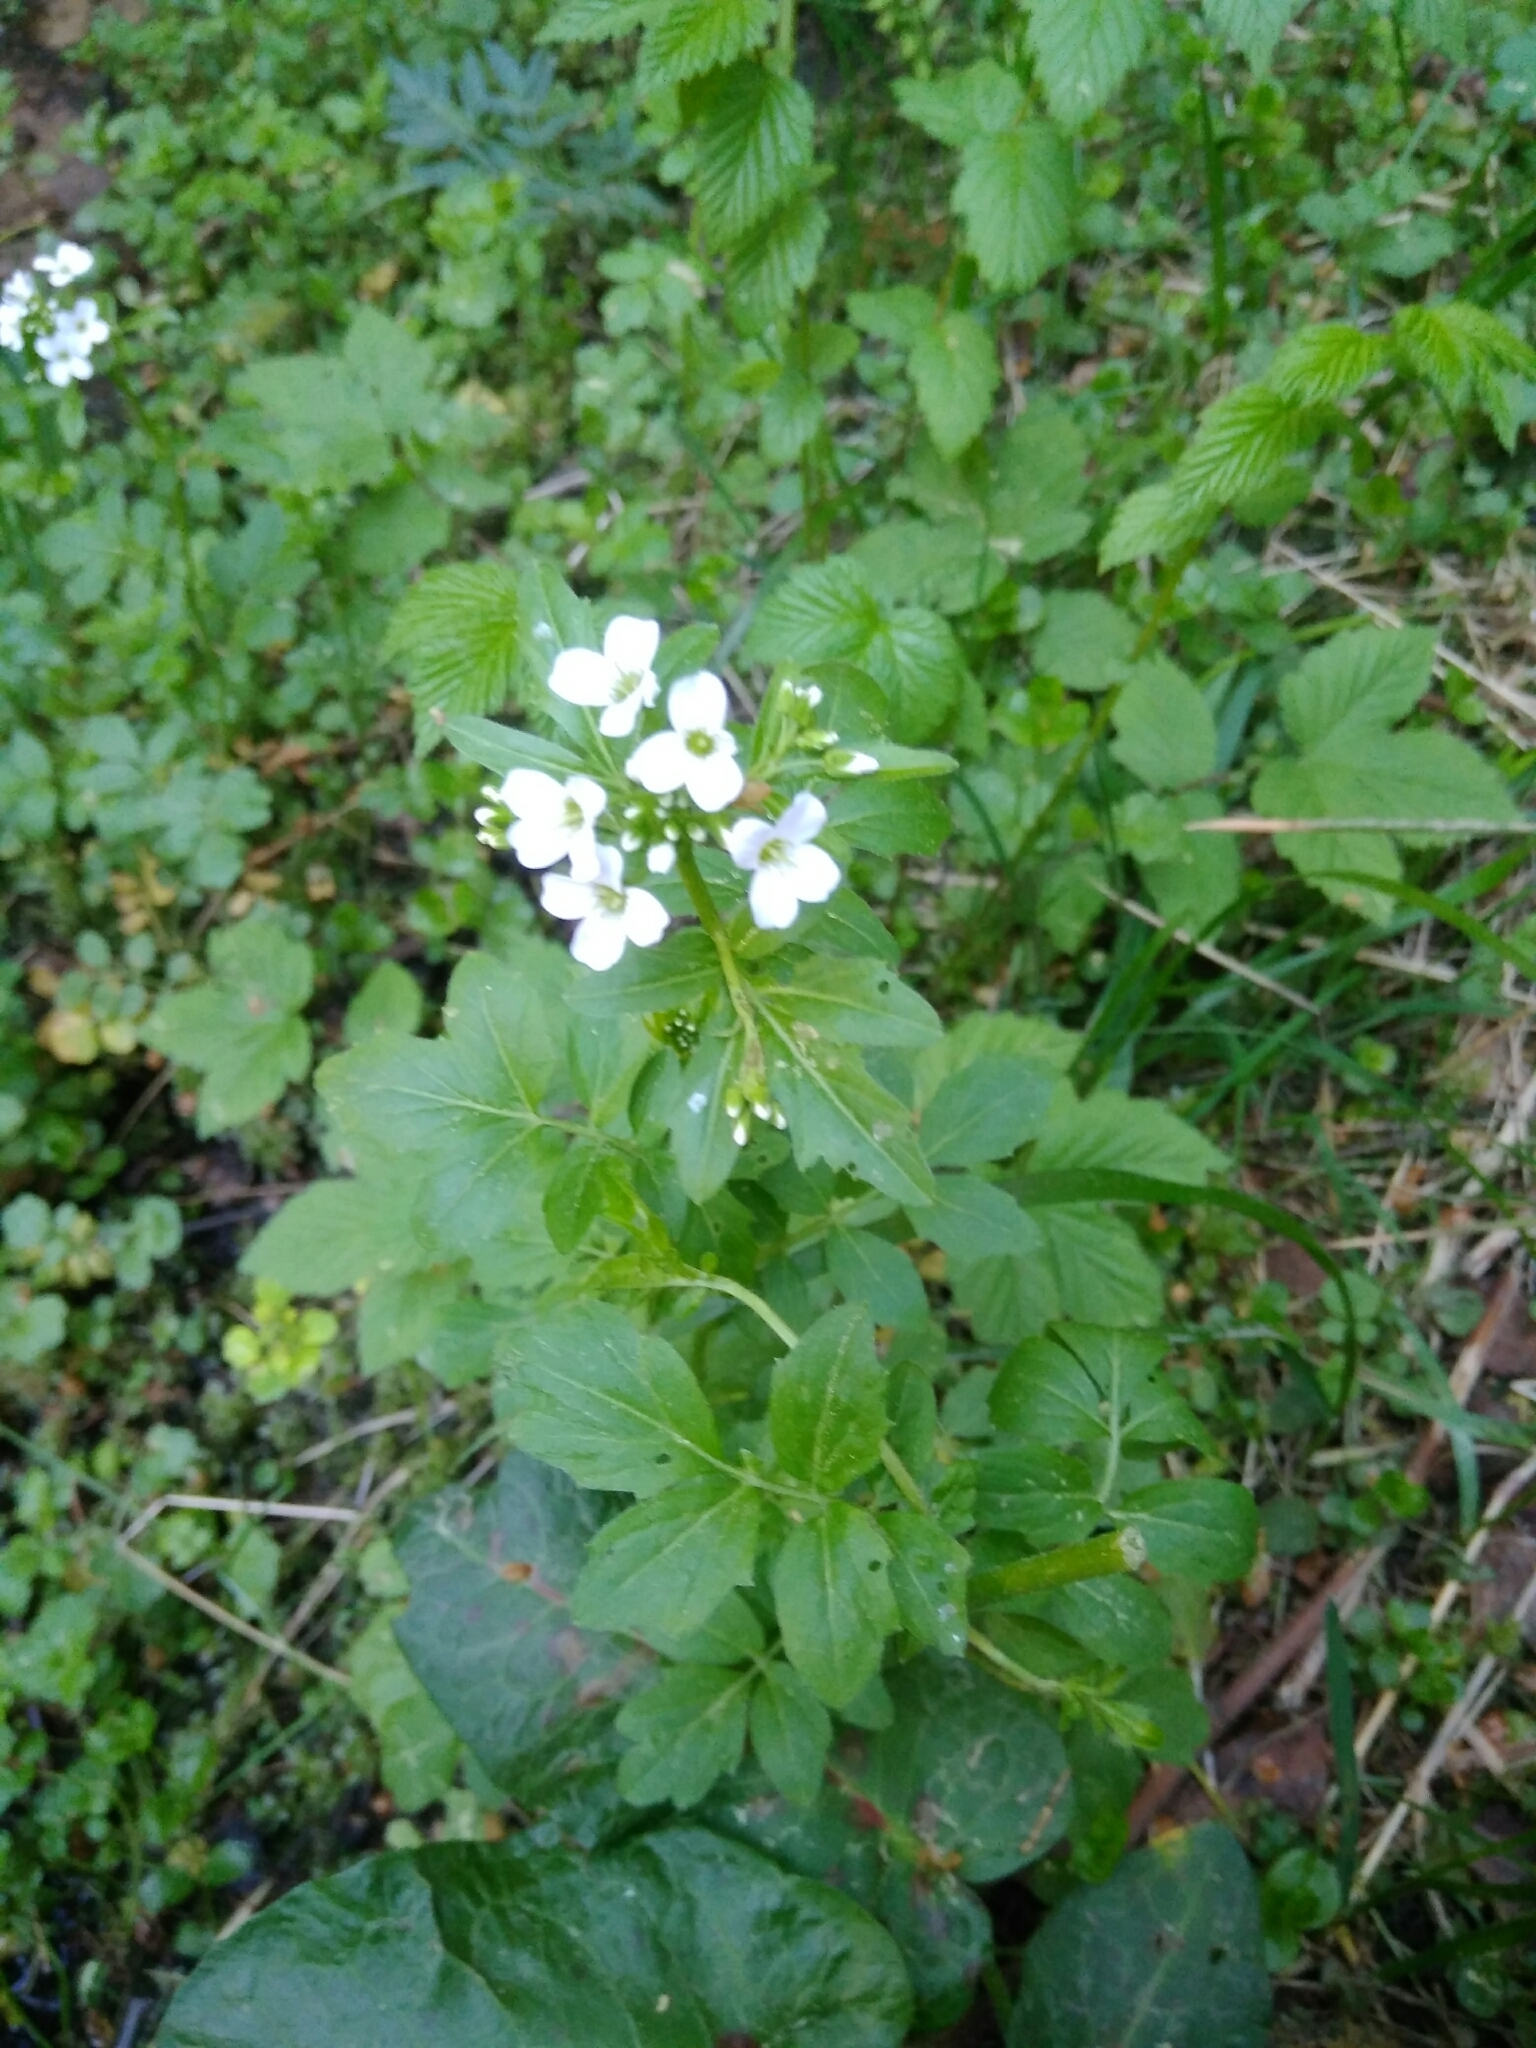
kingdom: Plantae
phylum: Tracheophyta
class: Magnoliopsida
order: Brassicales
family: Brassicaceae
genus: Cardamine
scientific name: Cardamine amara
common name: Large bitter-cress
